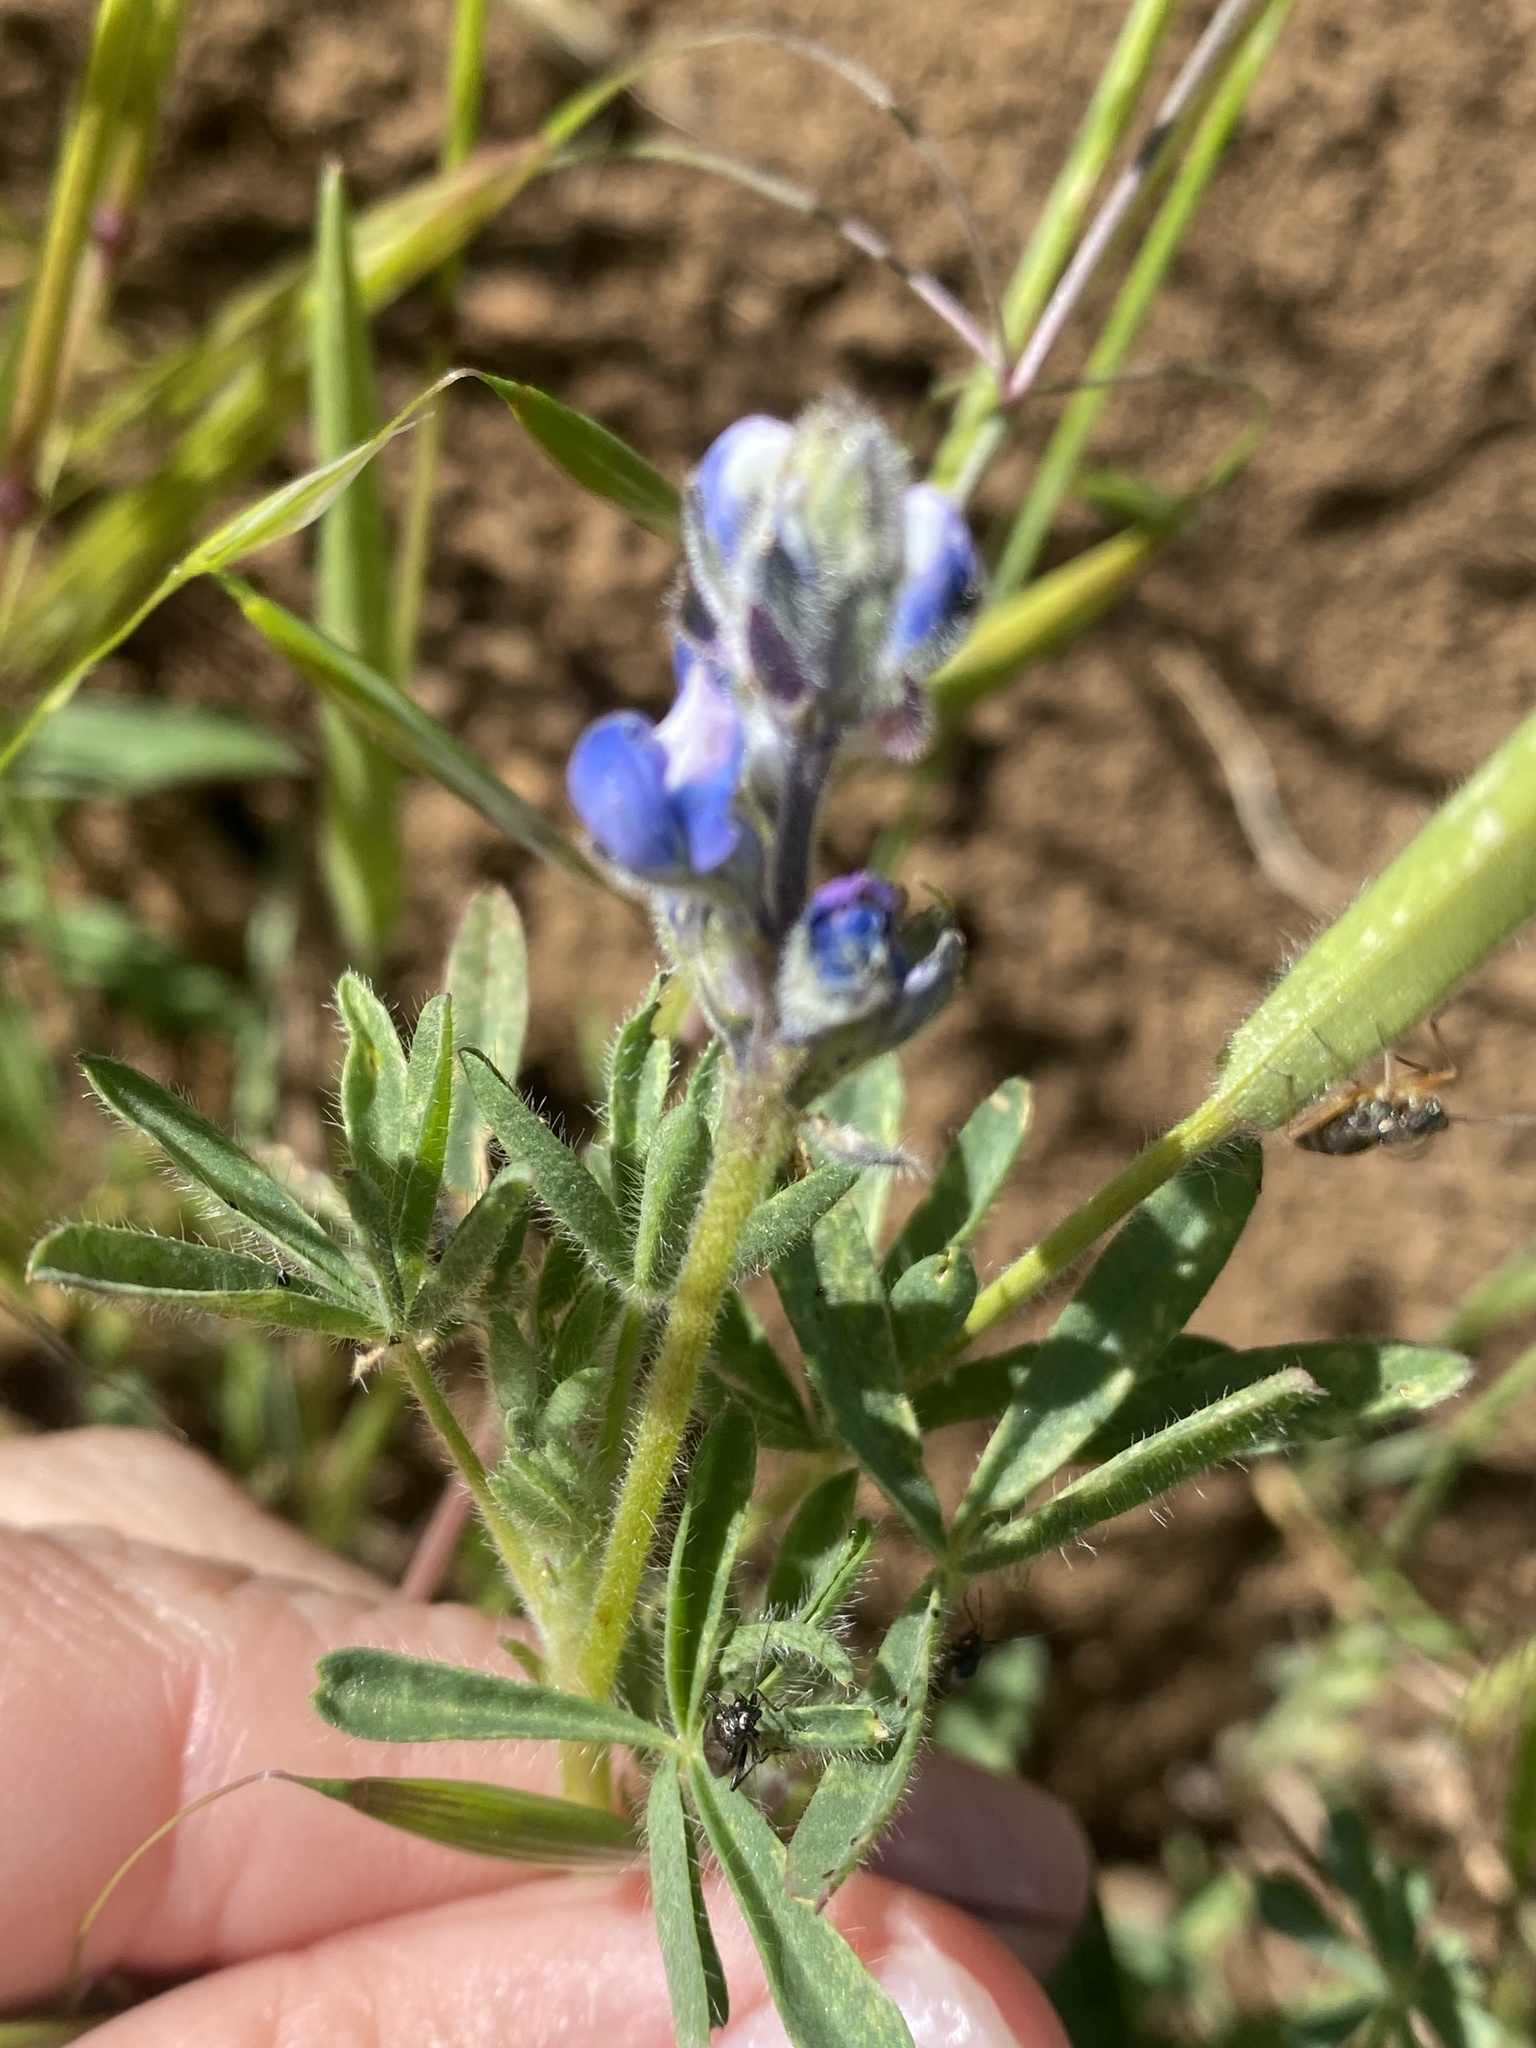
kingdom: Plantae
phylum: Tracheophyta
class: Magnoliopsida
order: Fabales
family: Fabaceae
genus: Lupinus
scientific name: Lupinus bicolor
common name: Miniature lupine
